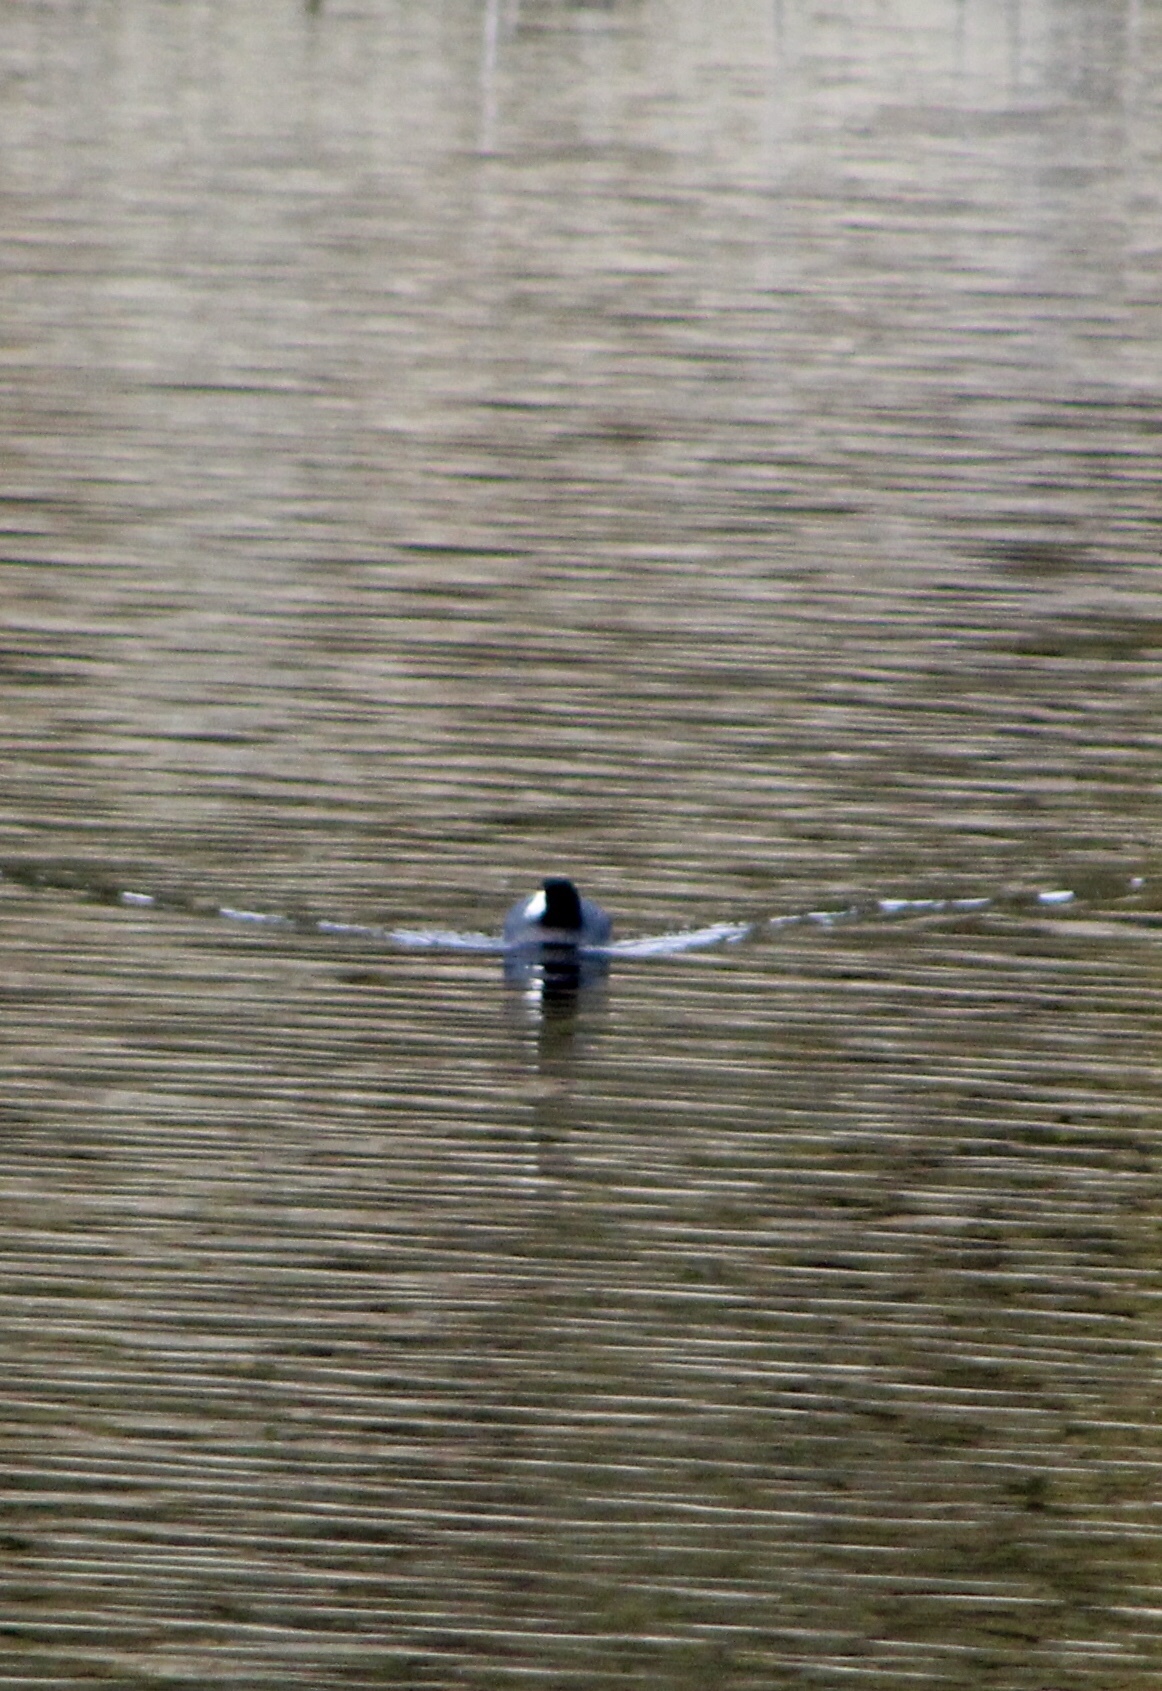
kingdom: Animalia
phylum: Chordata
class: Aves
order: Gruiformes
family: Rallidae
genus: Fulica
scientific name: Fulica americana
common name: American coot
